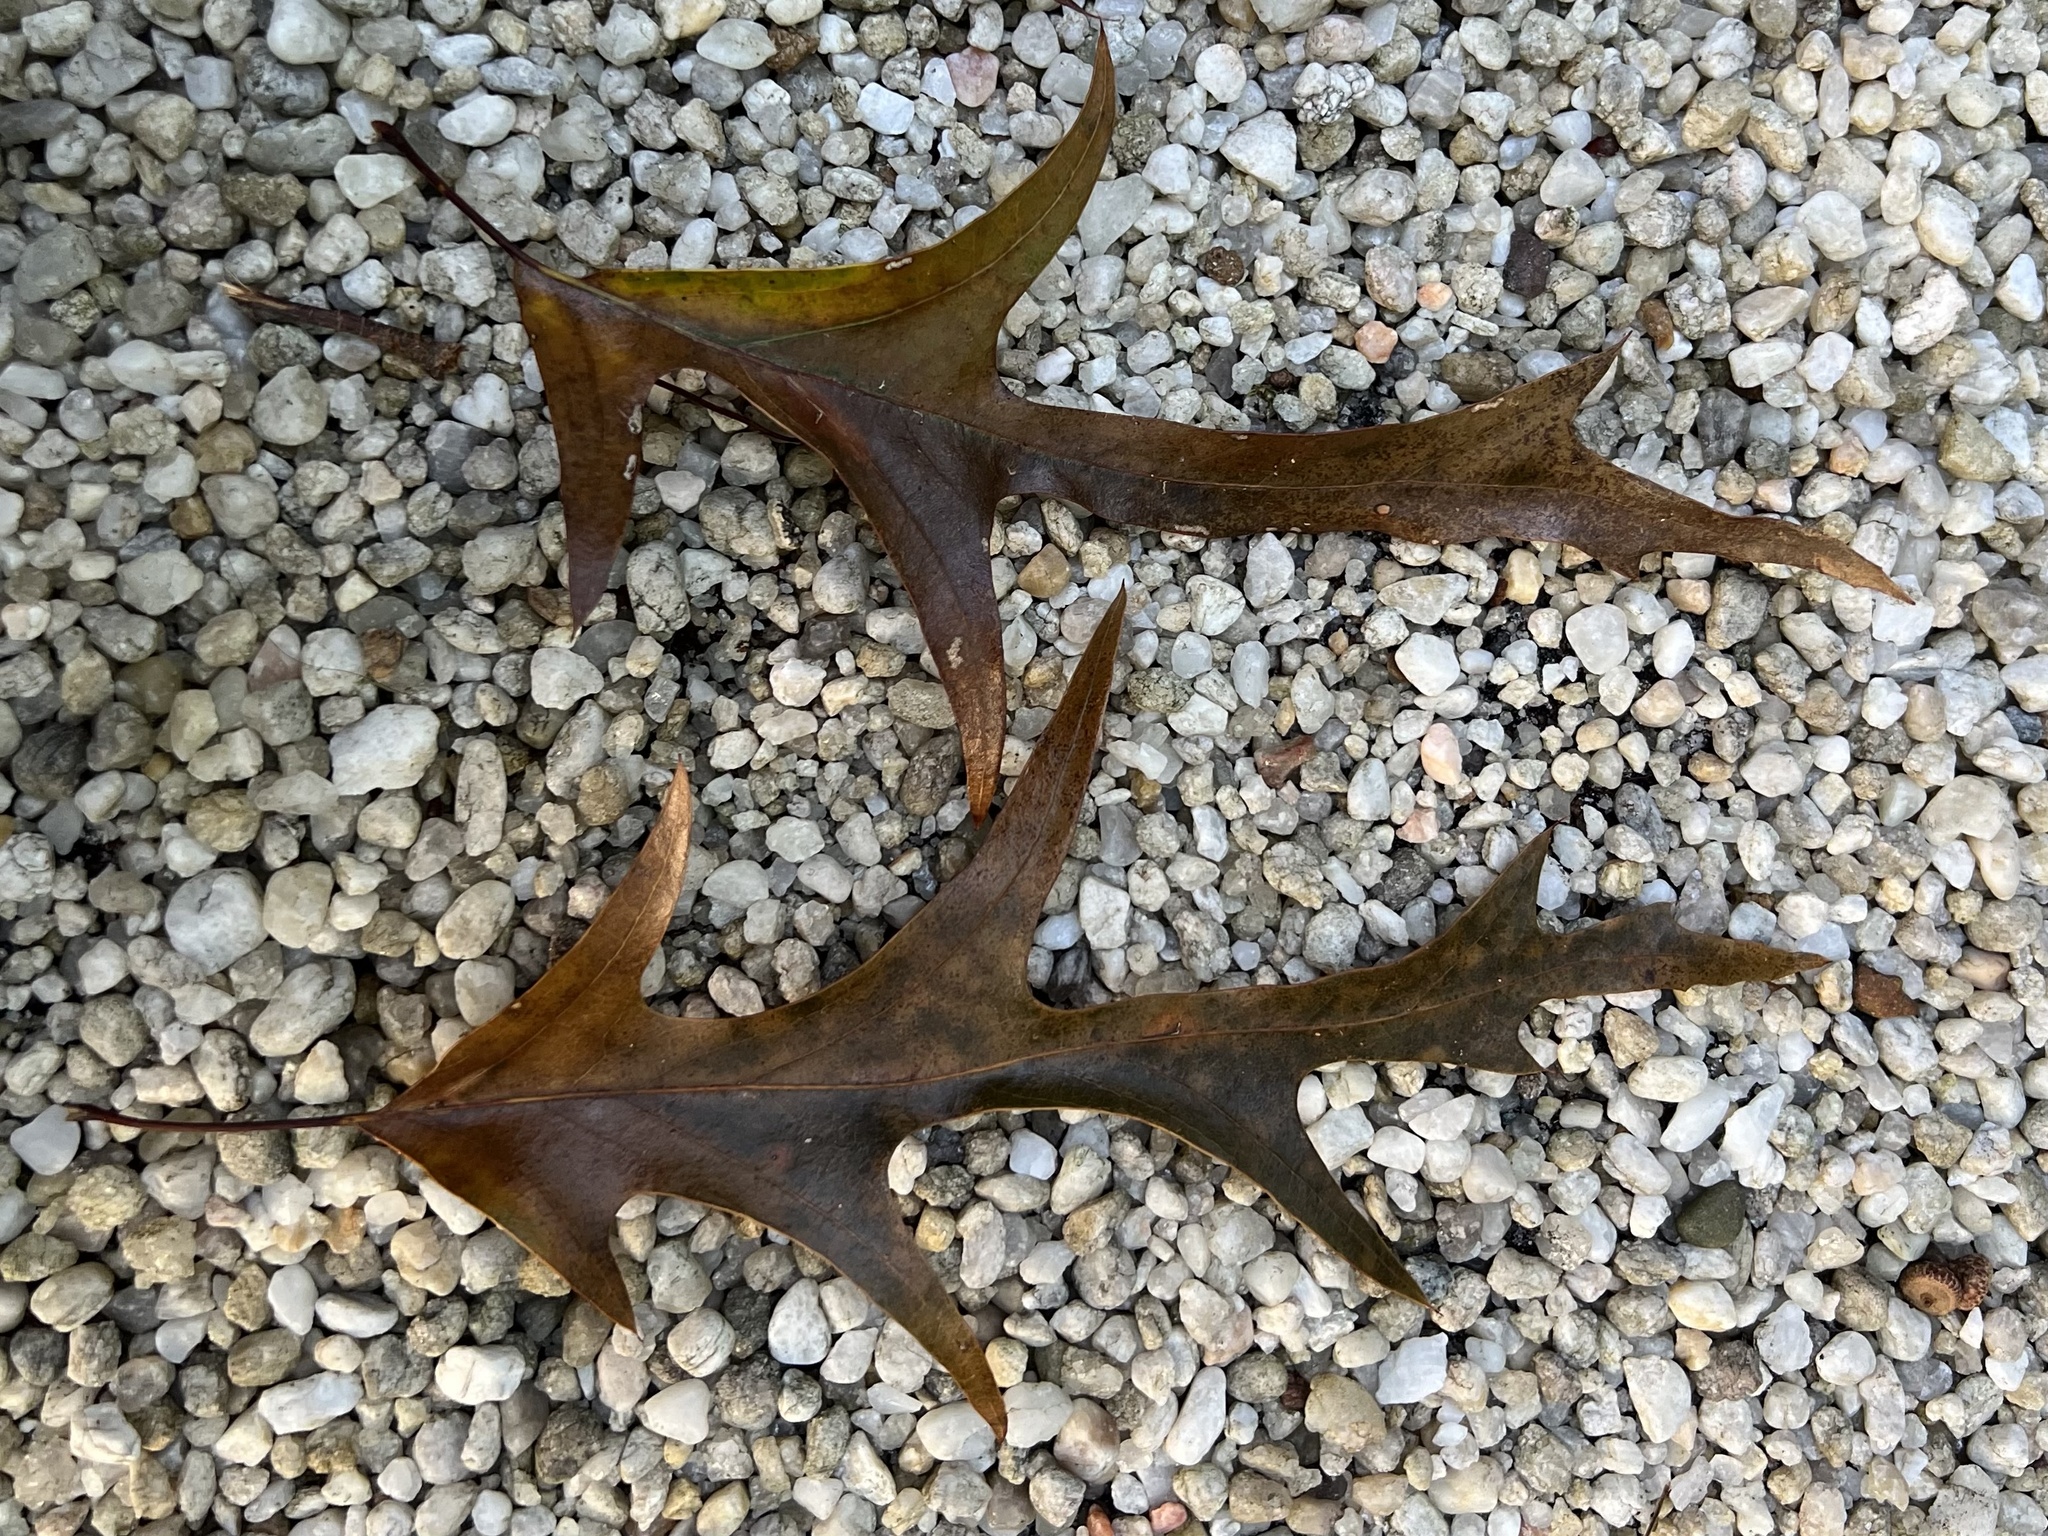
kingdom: Plantae
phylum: Tracheophyta
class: Magnoliopsida
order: Fagales
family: Fagaceae
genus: Quercus
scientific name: Quercus falcata
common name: Southern red oak
